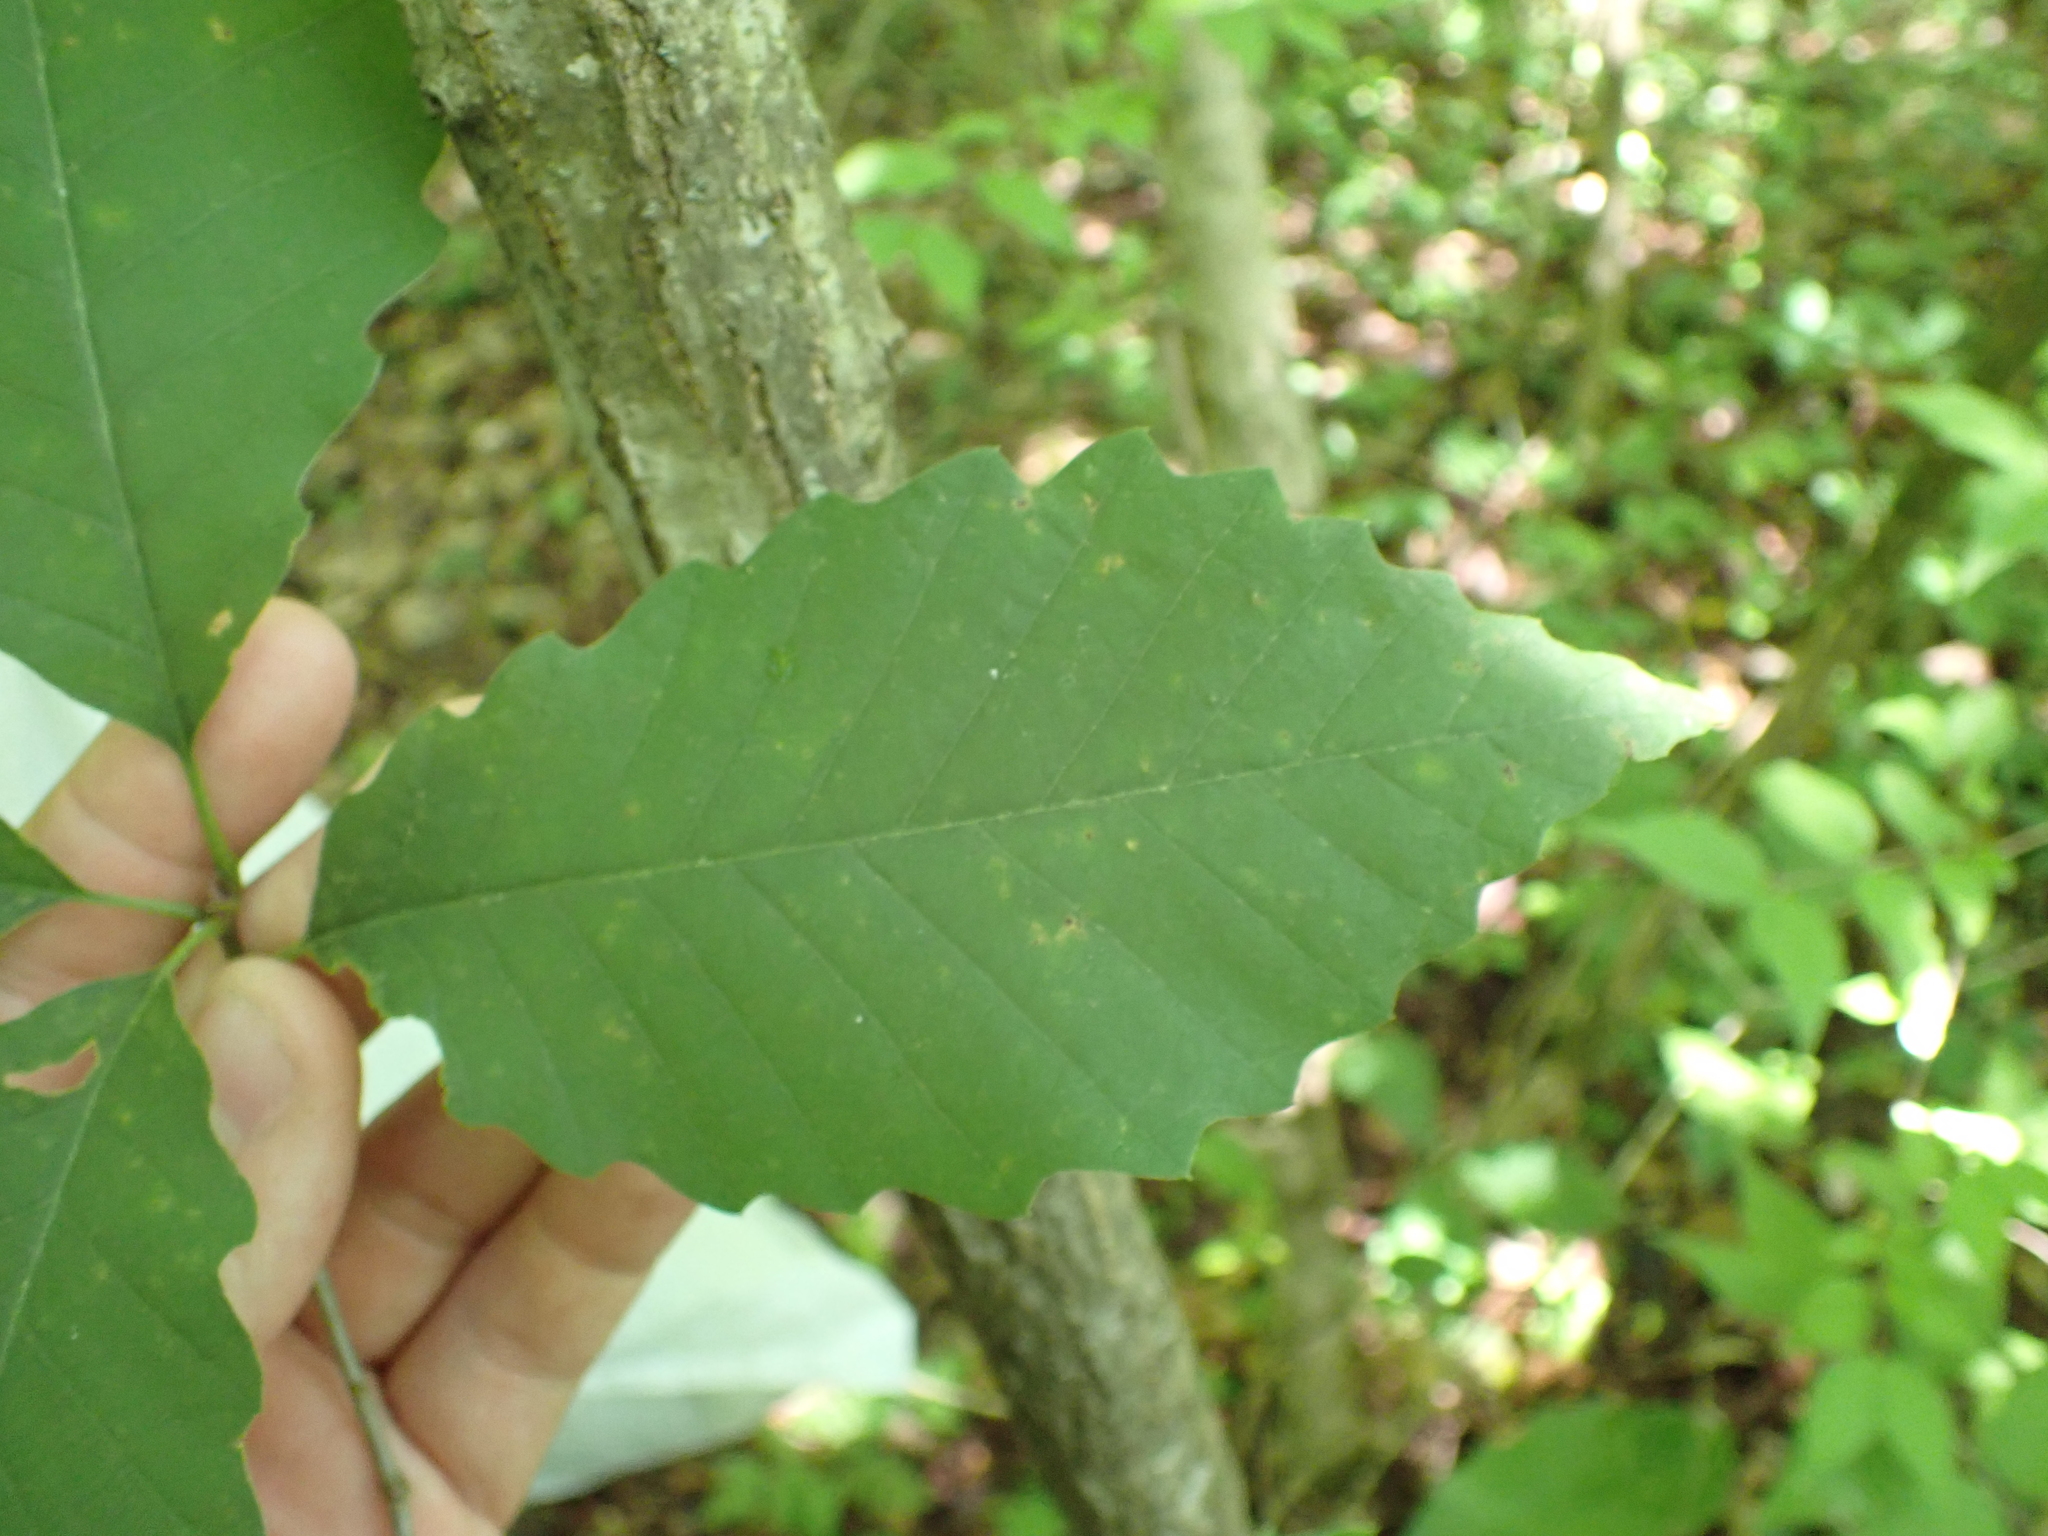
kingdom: Plantae
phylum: Tracheophyta
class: Magnoliopsida
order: Fagales
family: Fagaceae
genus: Quercus
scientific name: Quercus muehlenbergii
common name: Chinkapin oak
